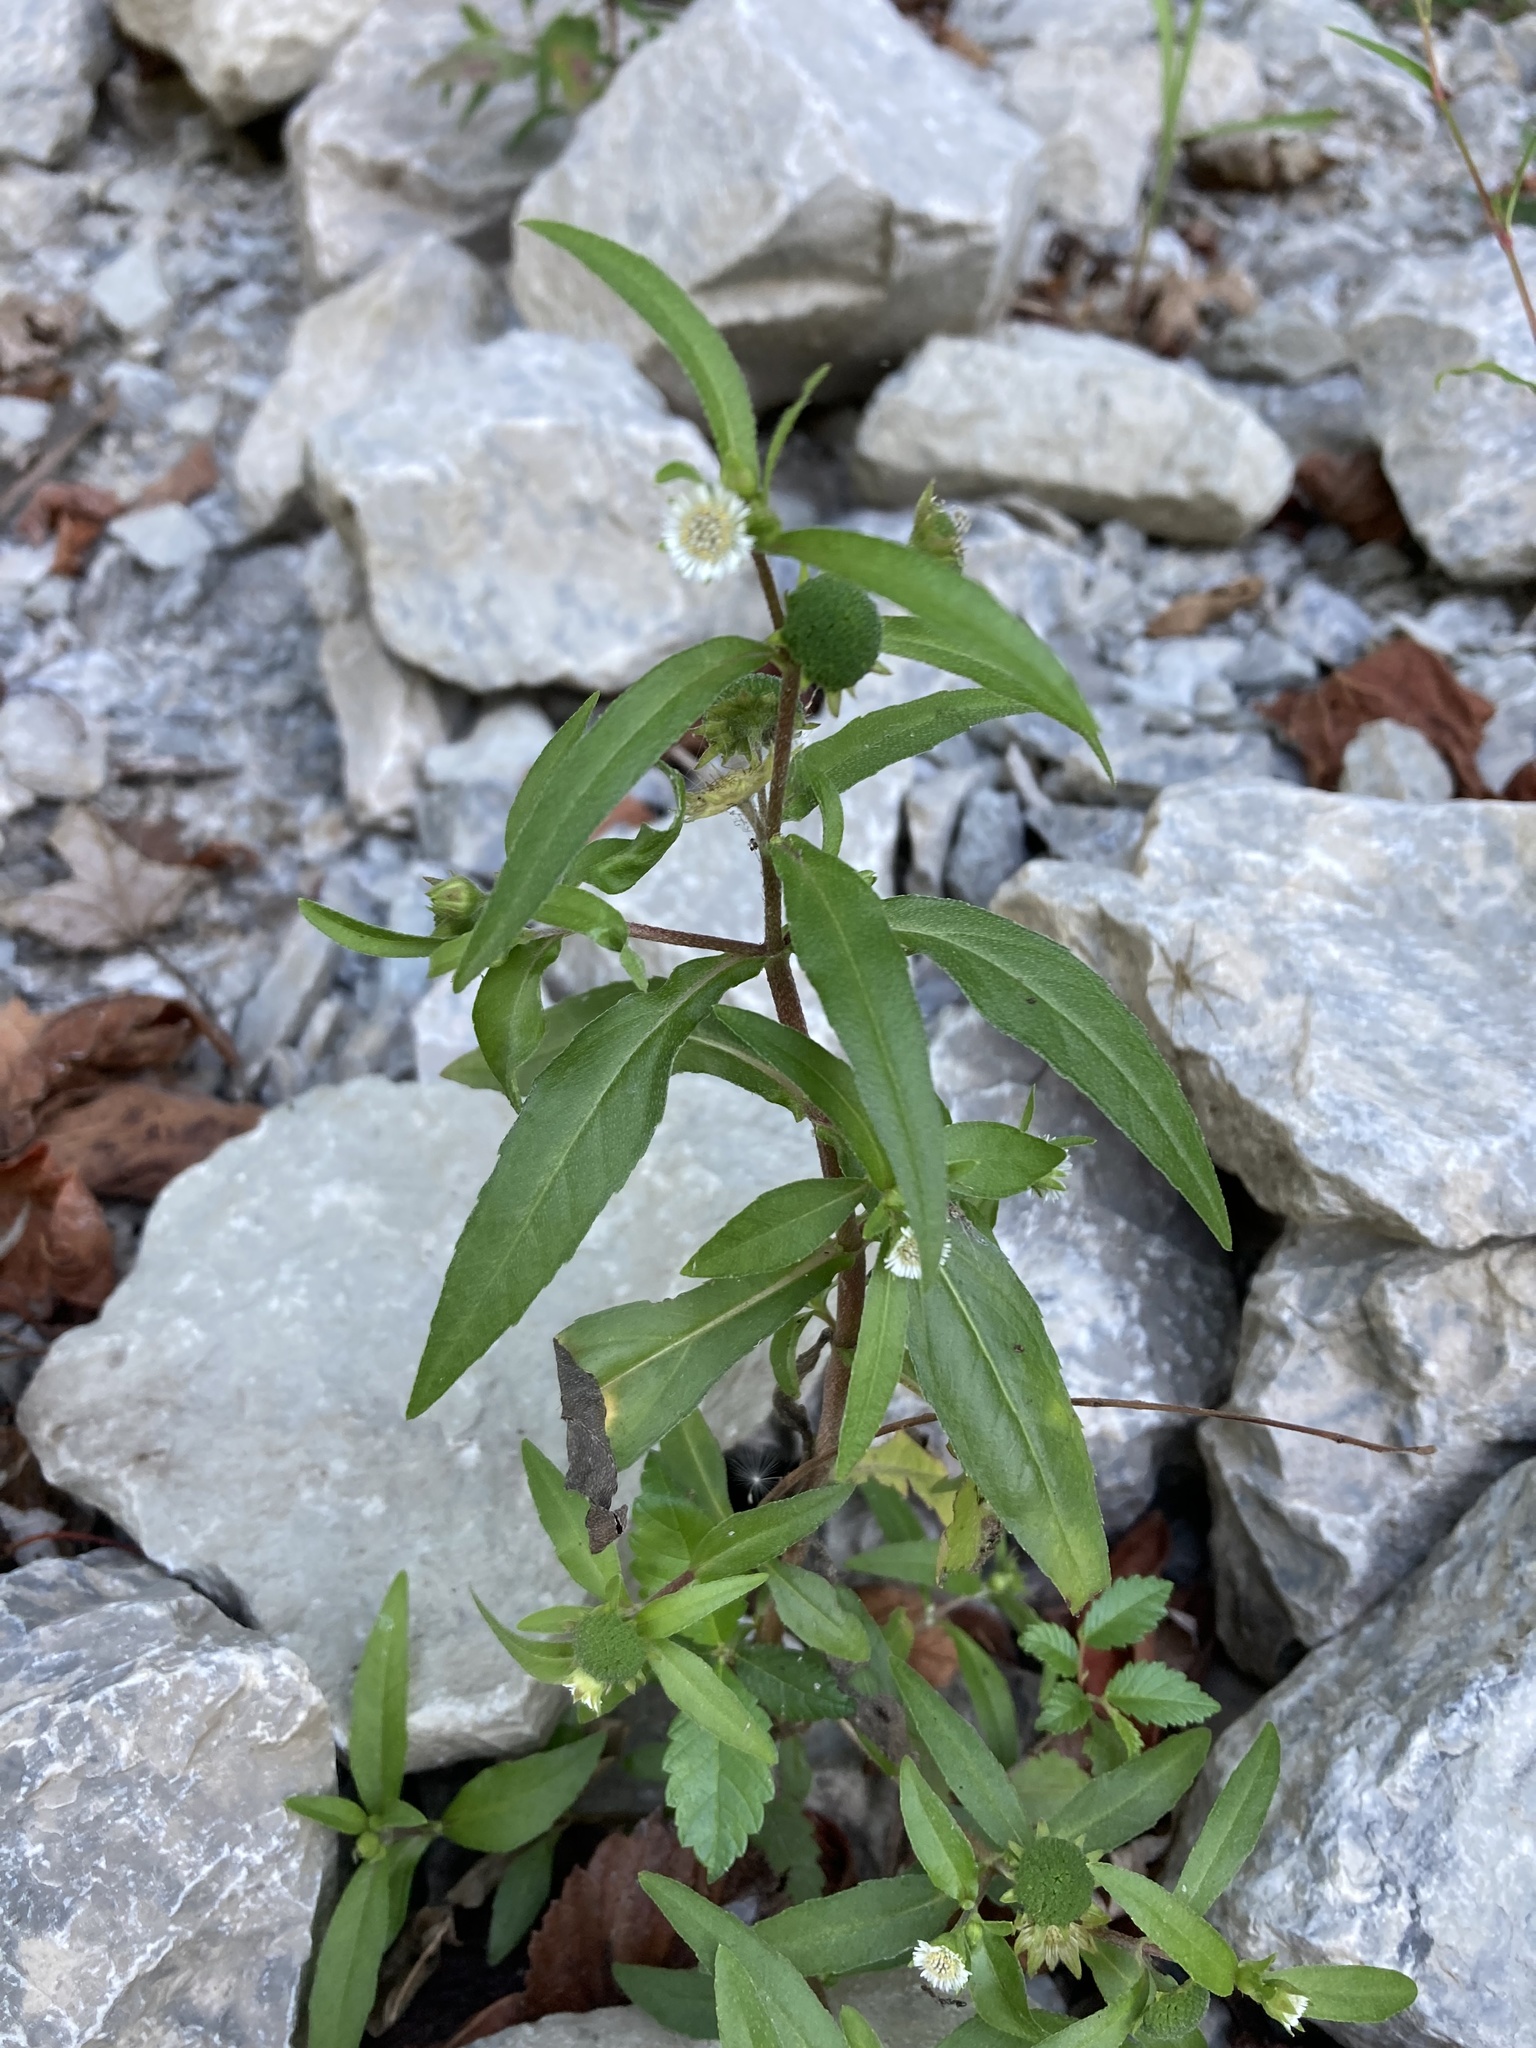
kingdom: Plantae
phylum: Tracheophyta
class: Magnoliopsida
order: Asterales
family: Asteraceae
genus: Eclipta
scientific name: Eclipta prostrata
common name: False daisy
